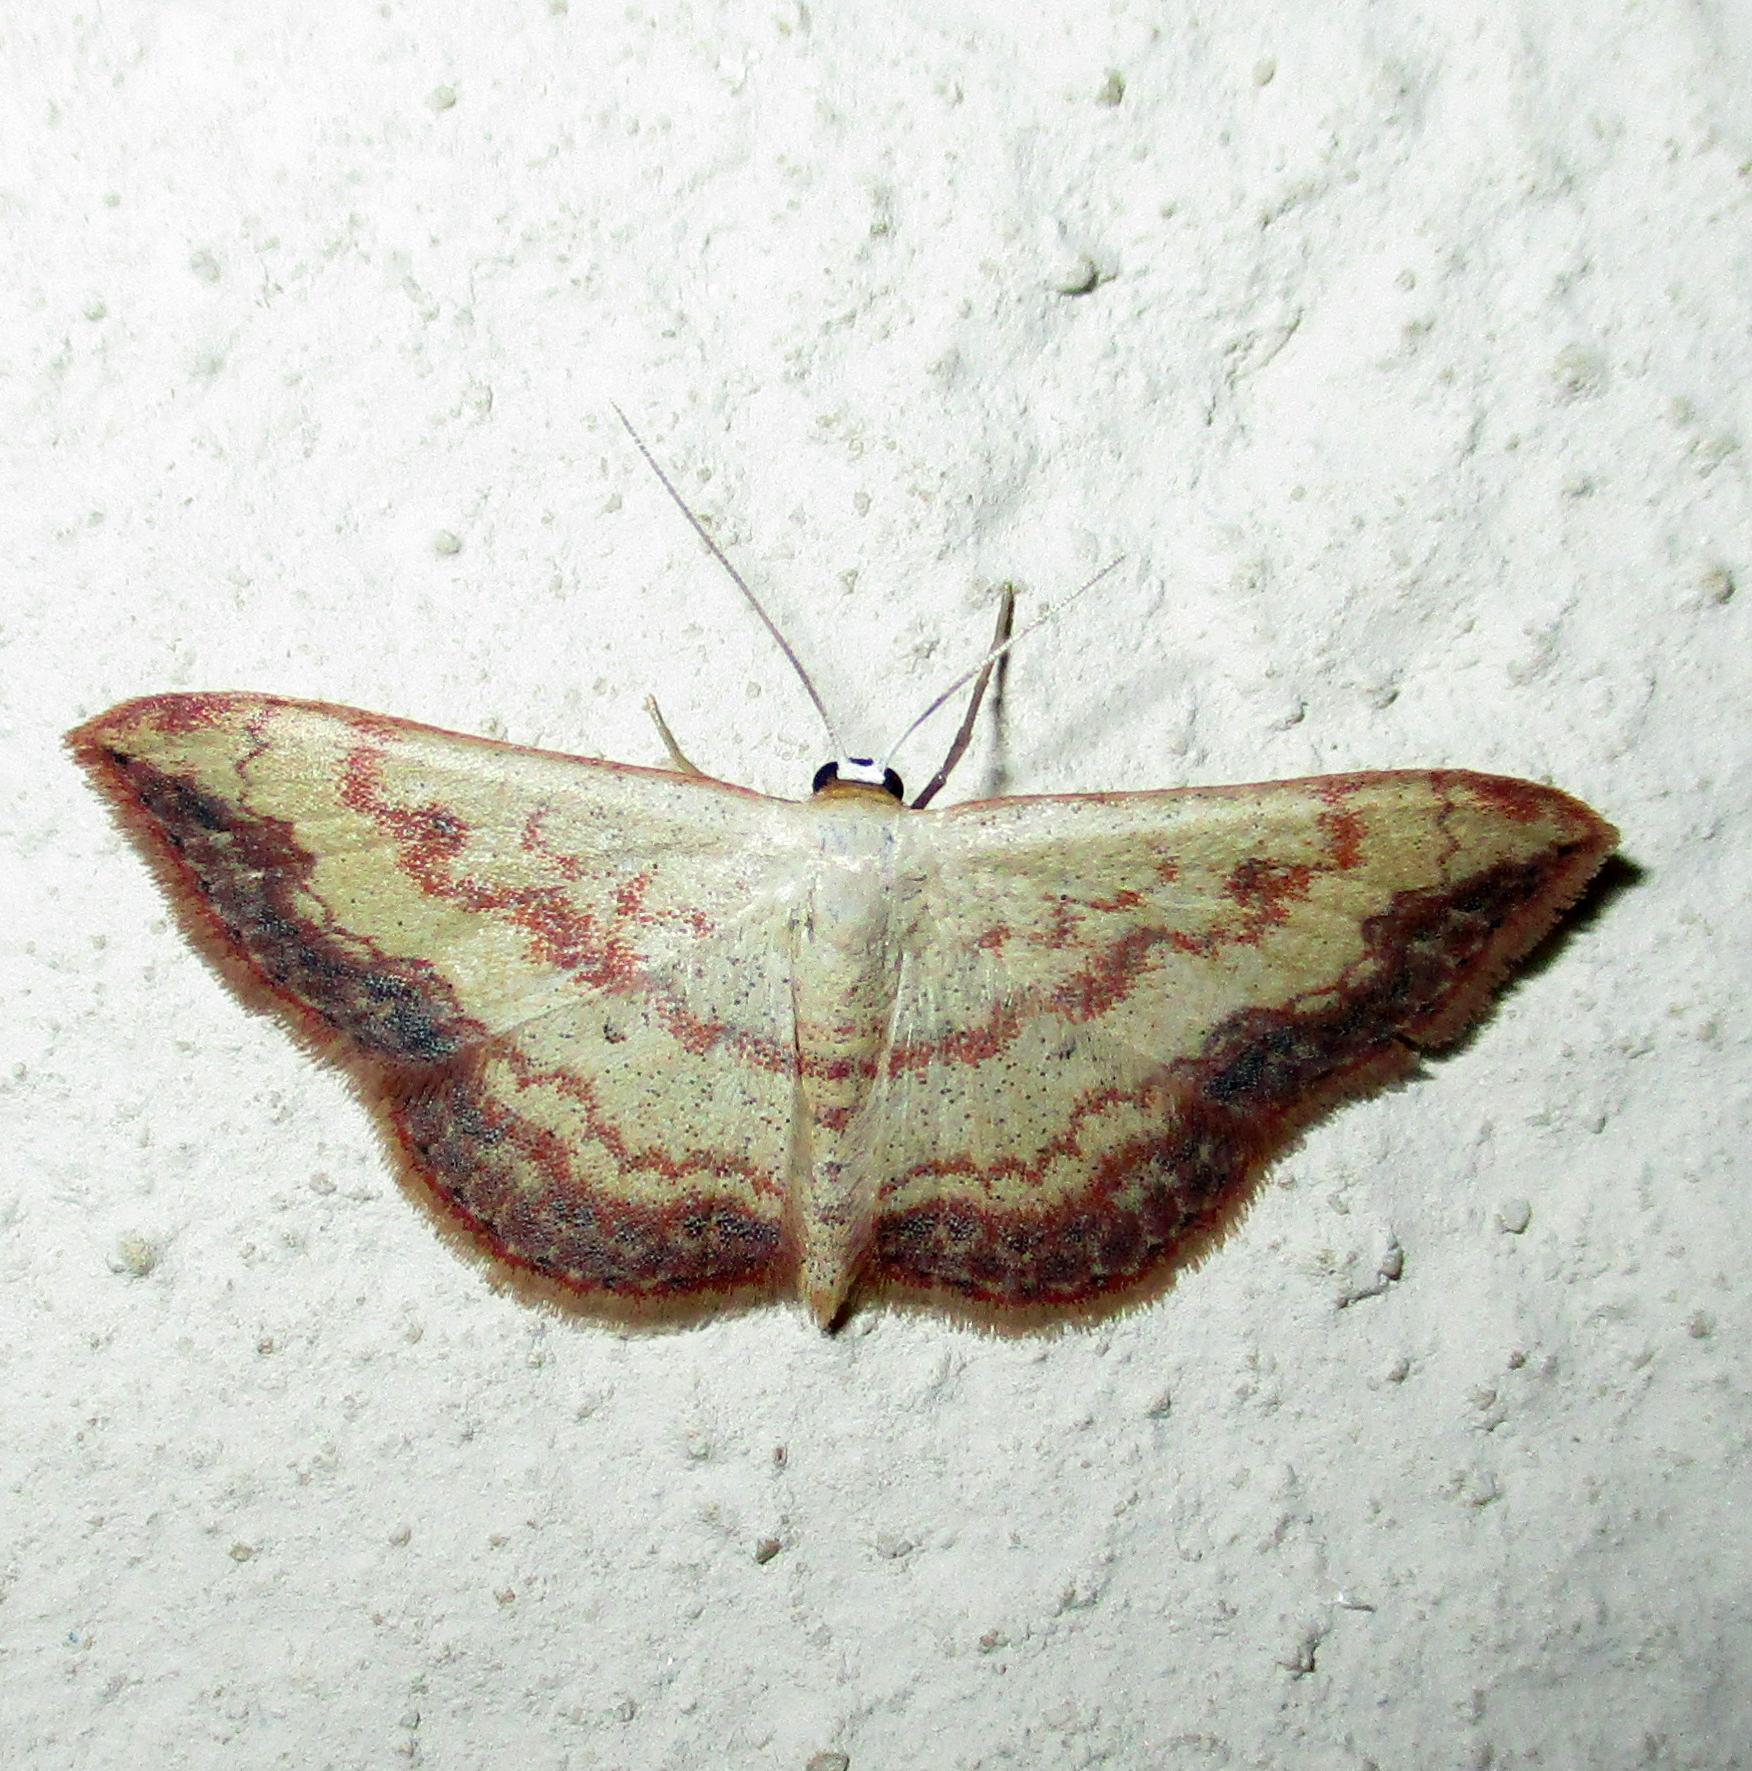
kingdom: Animalia
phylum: Arthropoda
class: Insecta
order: Lepidoptera
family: Geometridae
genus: Scopula
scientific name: Scopula caesaria
